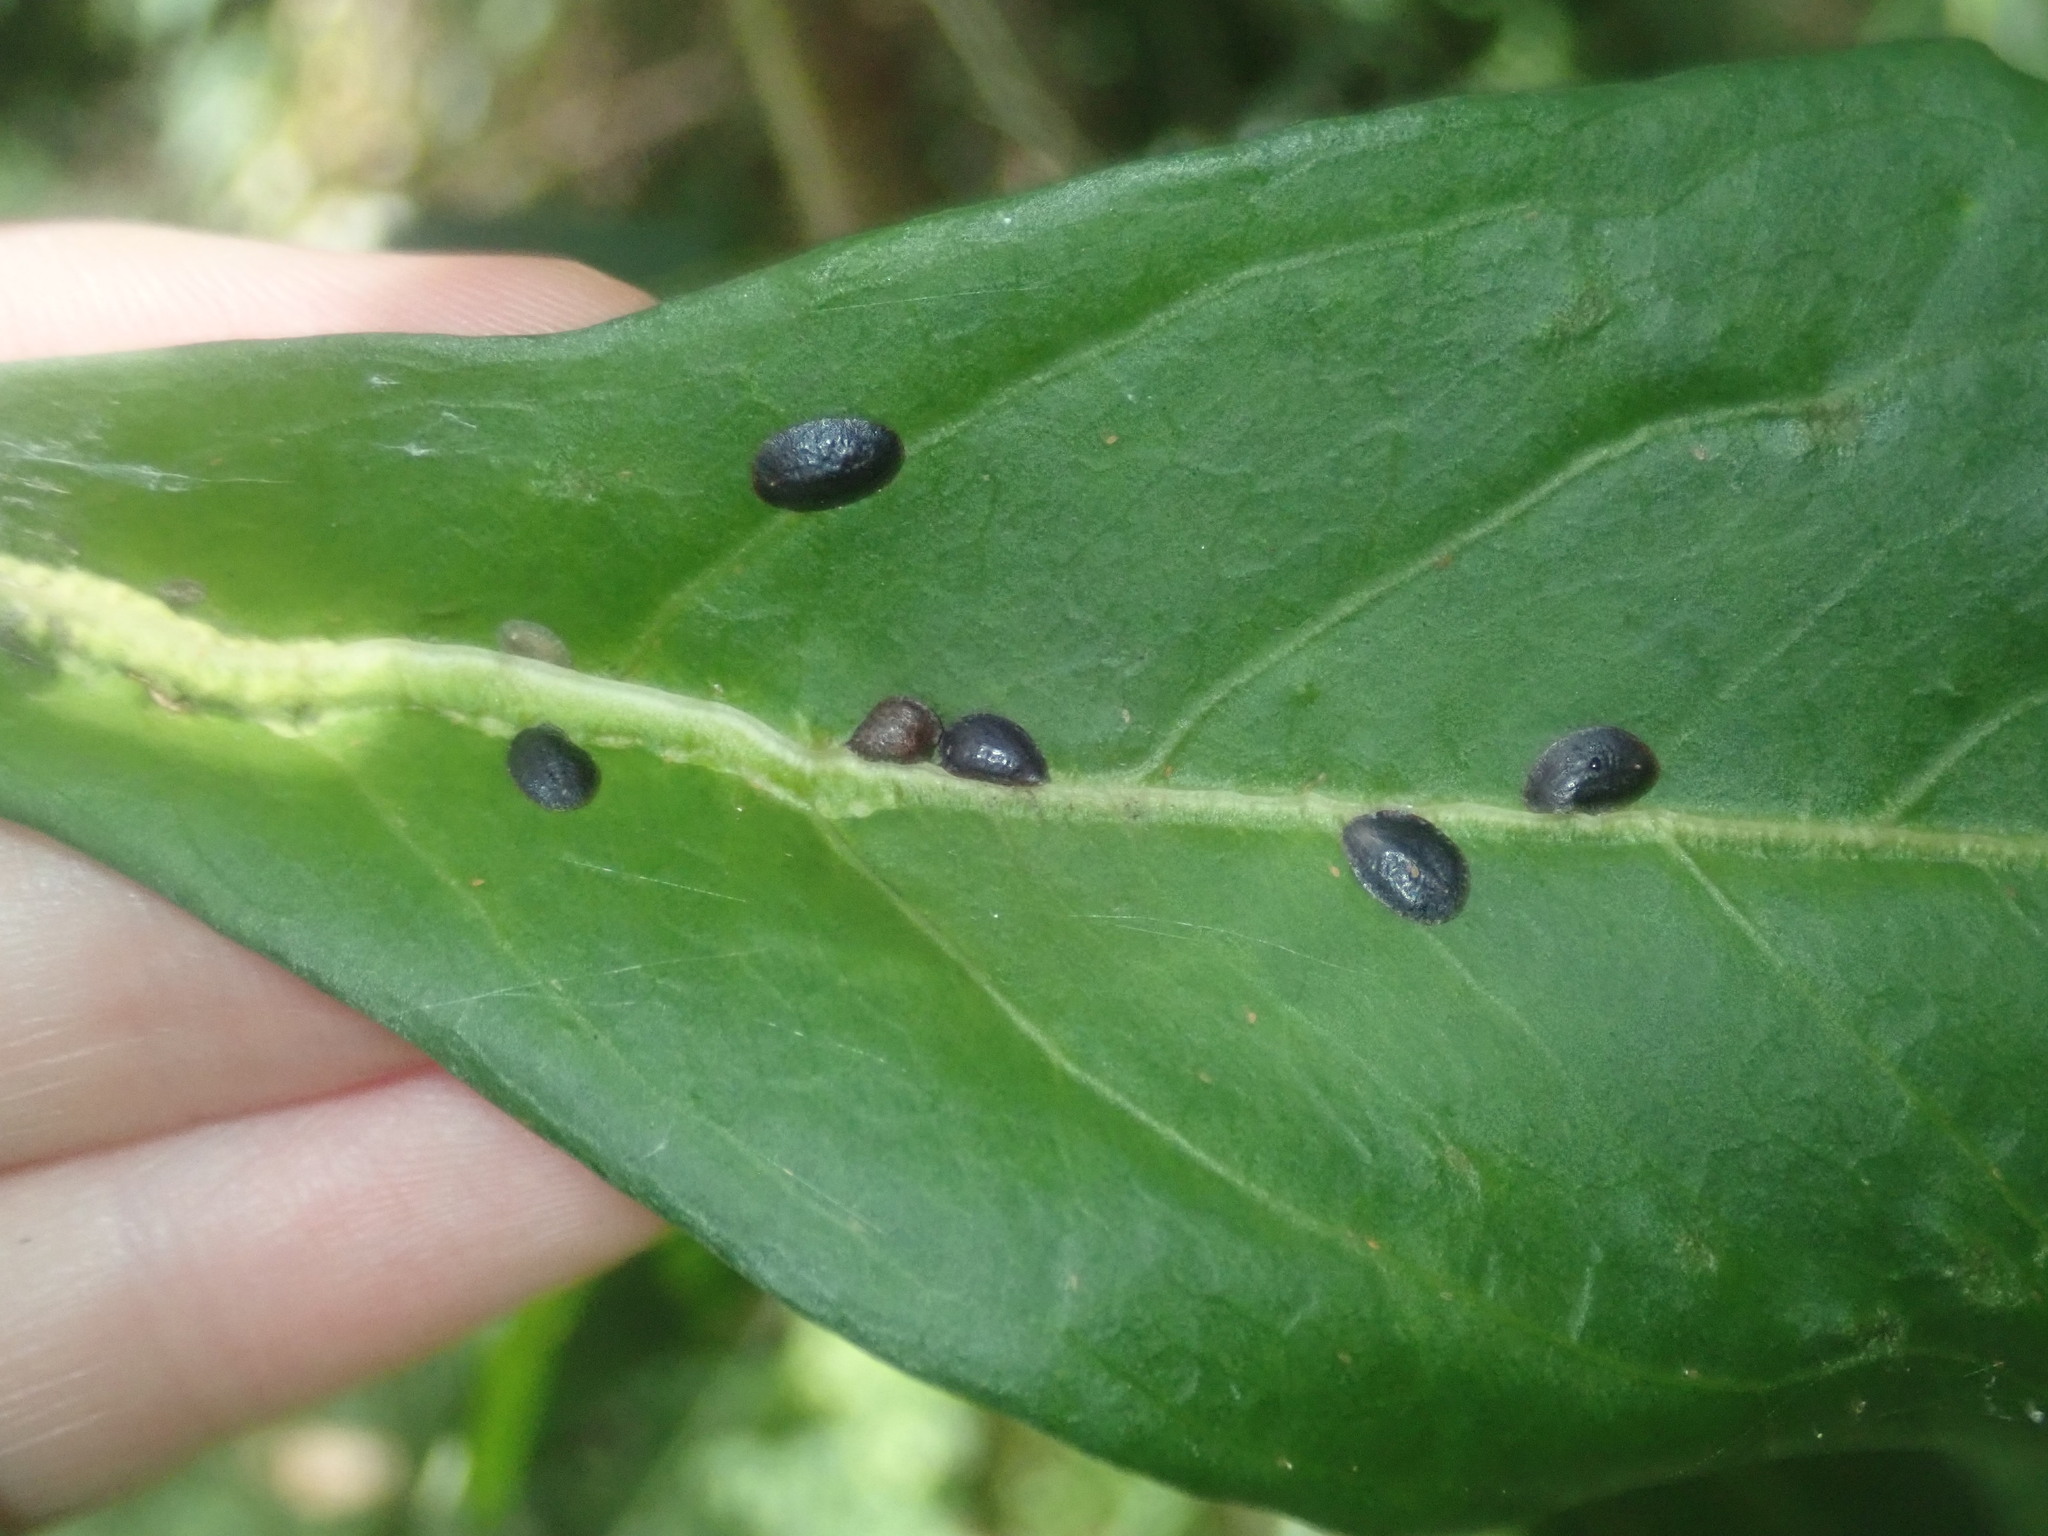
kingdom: Animalia
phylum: Arthropoda
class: Insecta
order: Hemiptera
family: Coccidae
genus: Parasaissetia
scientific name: Parasaissetia nigra
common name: Black scale
